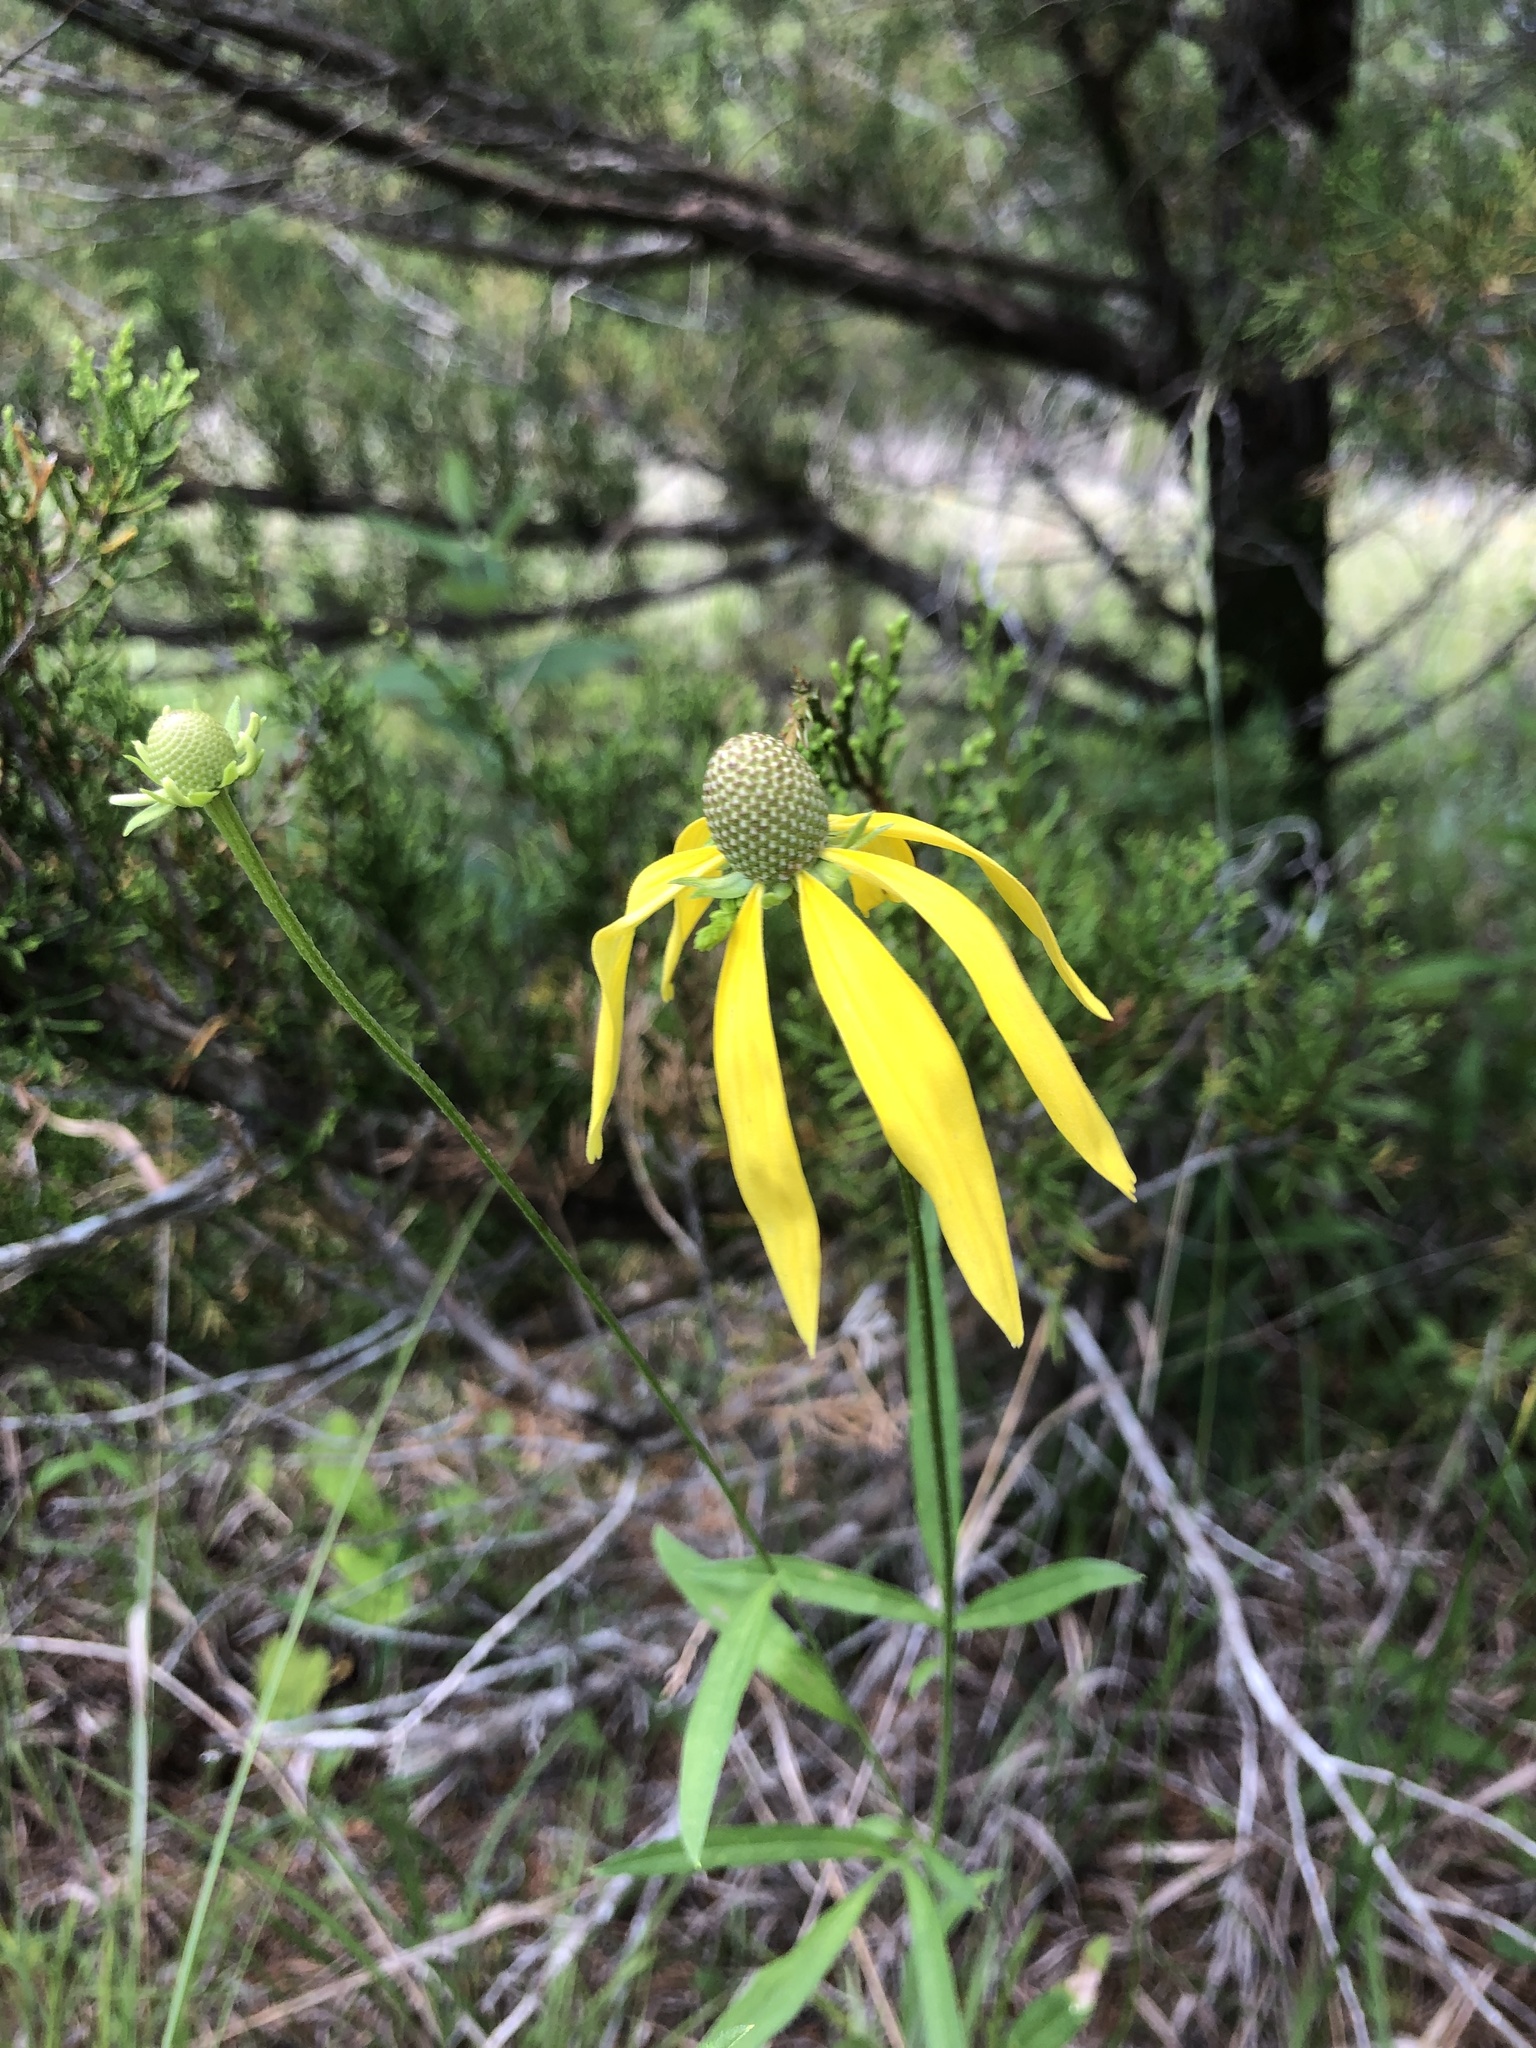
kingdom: Plantae
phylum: Tracheophyta
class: Magnoliopsida
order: Asterales
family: Asteraceae
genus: Ratibida
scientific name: Ratibida pinnata
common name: Drooping prairie-coneflower
